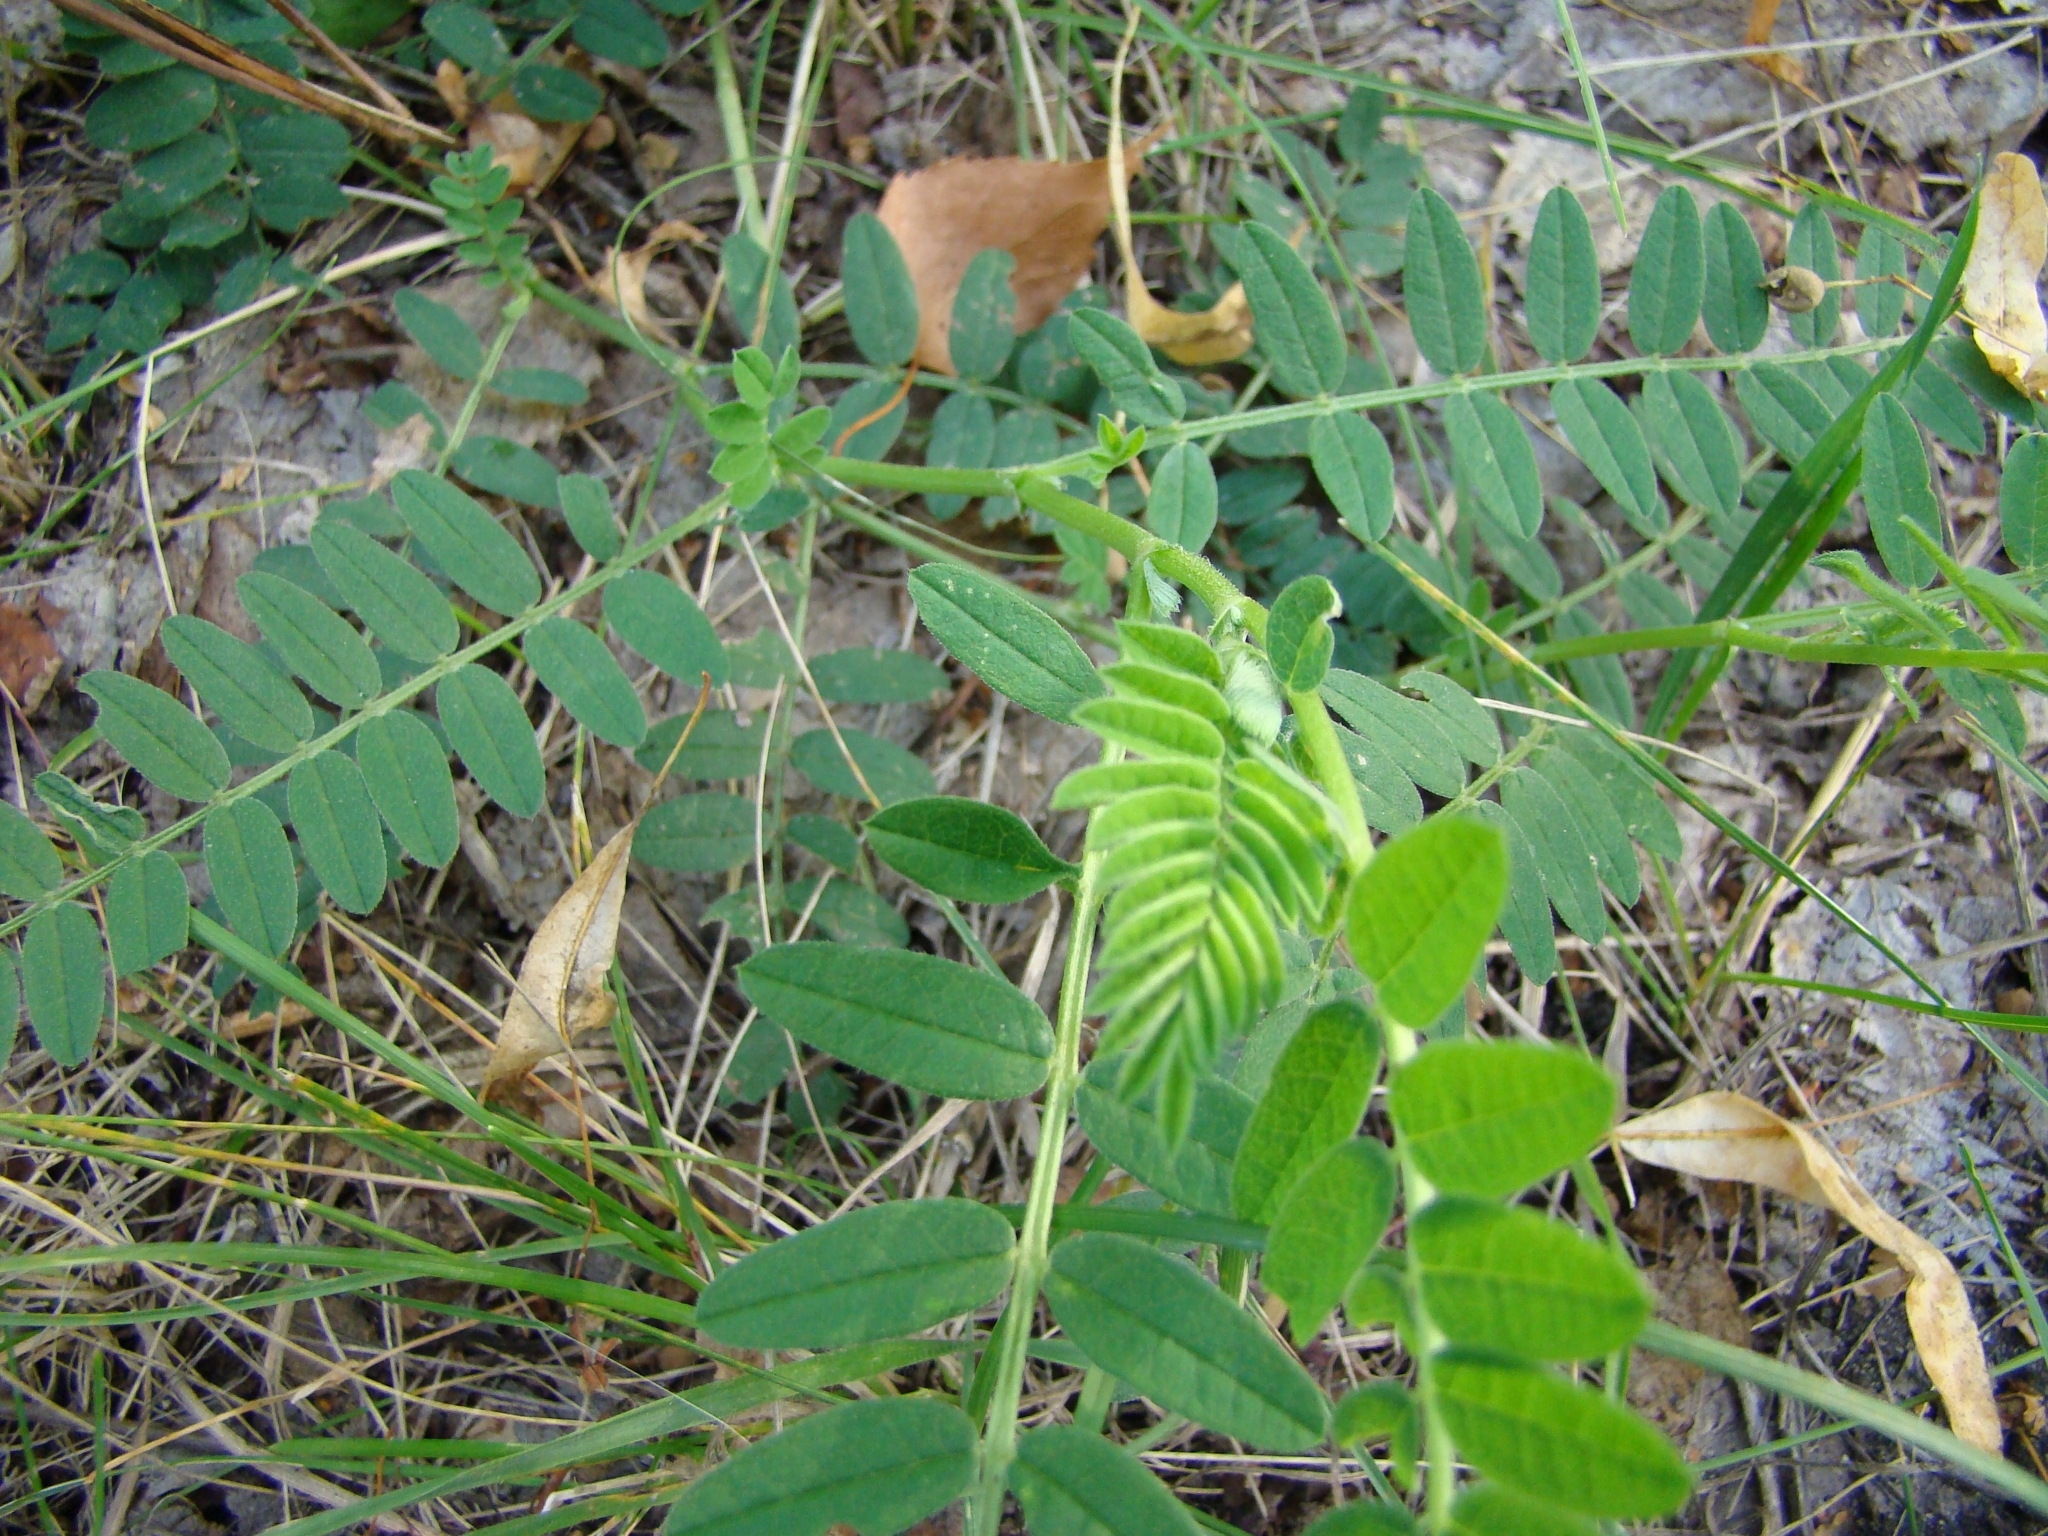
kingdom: Plantae
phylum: Tracheophyta
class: Magnoliopsida
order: Fabales
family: Fabaceae
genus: Astragalus
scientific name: Astragalus cicer
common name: Chick-pea milk-vetch
